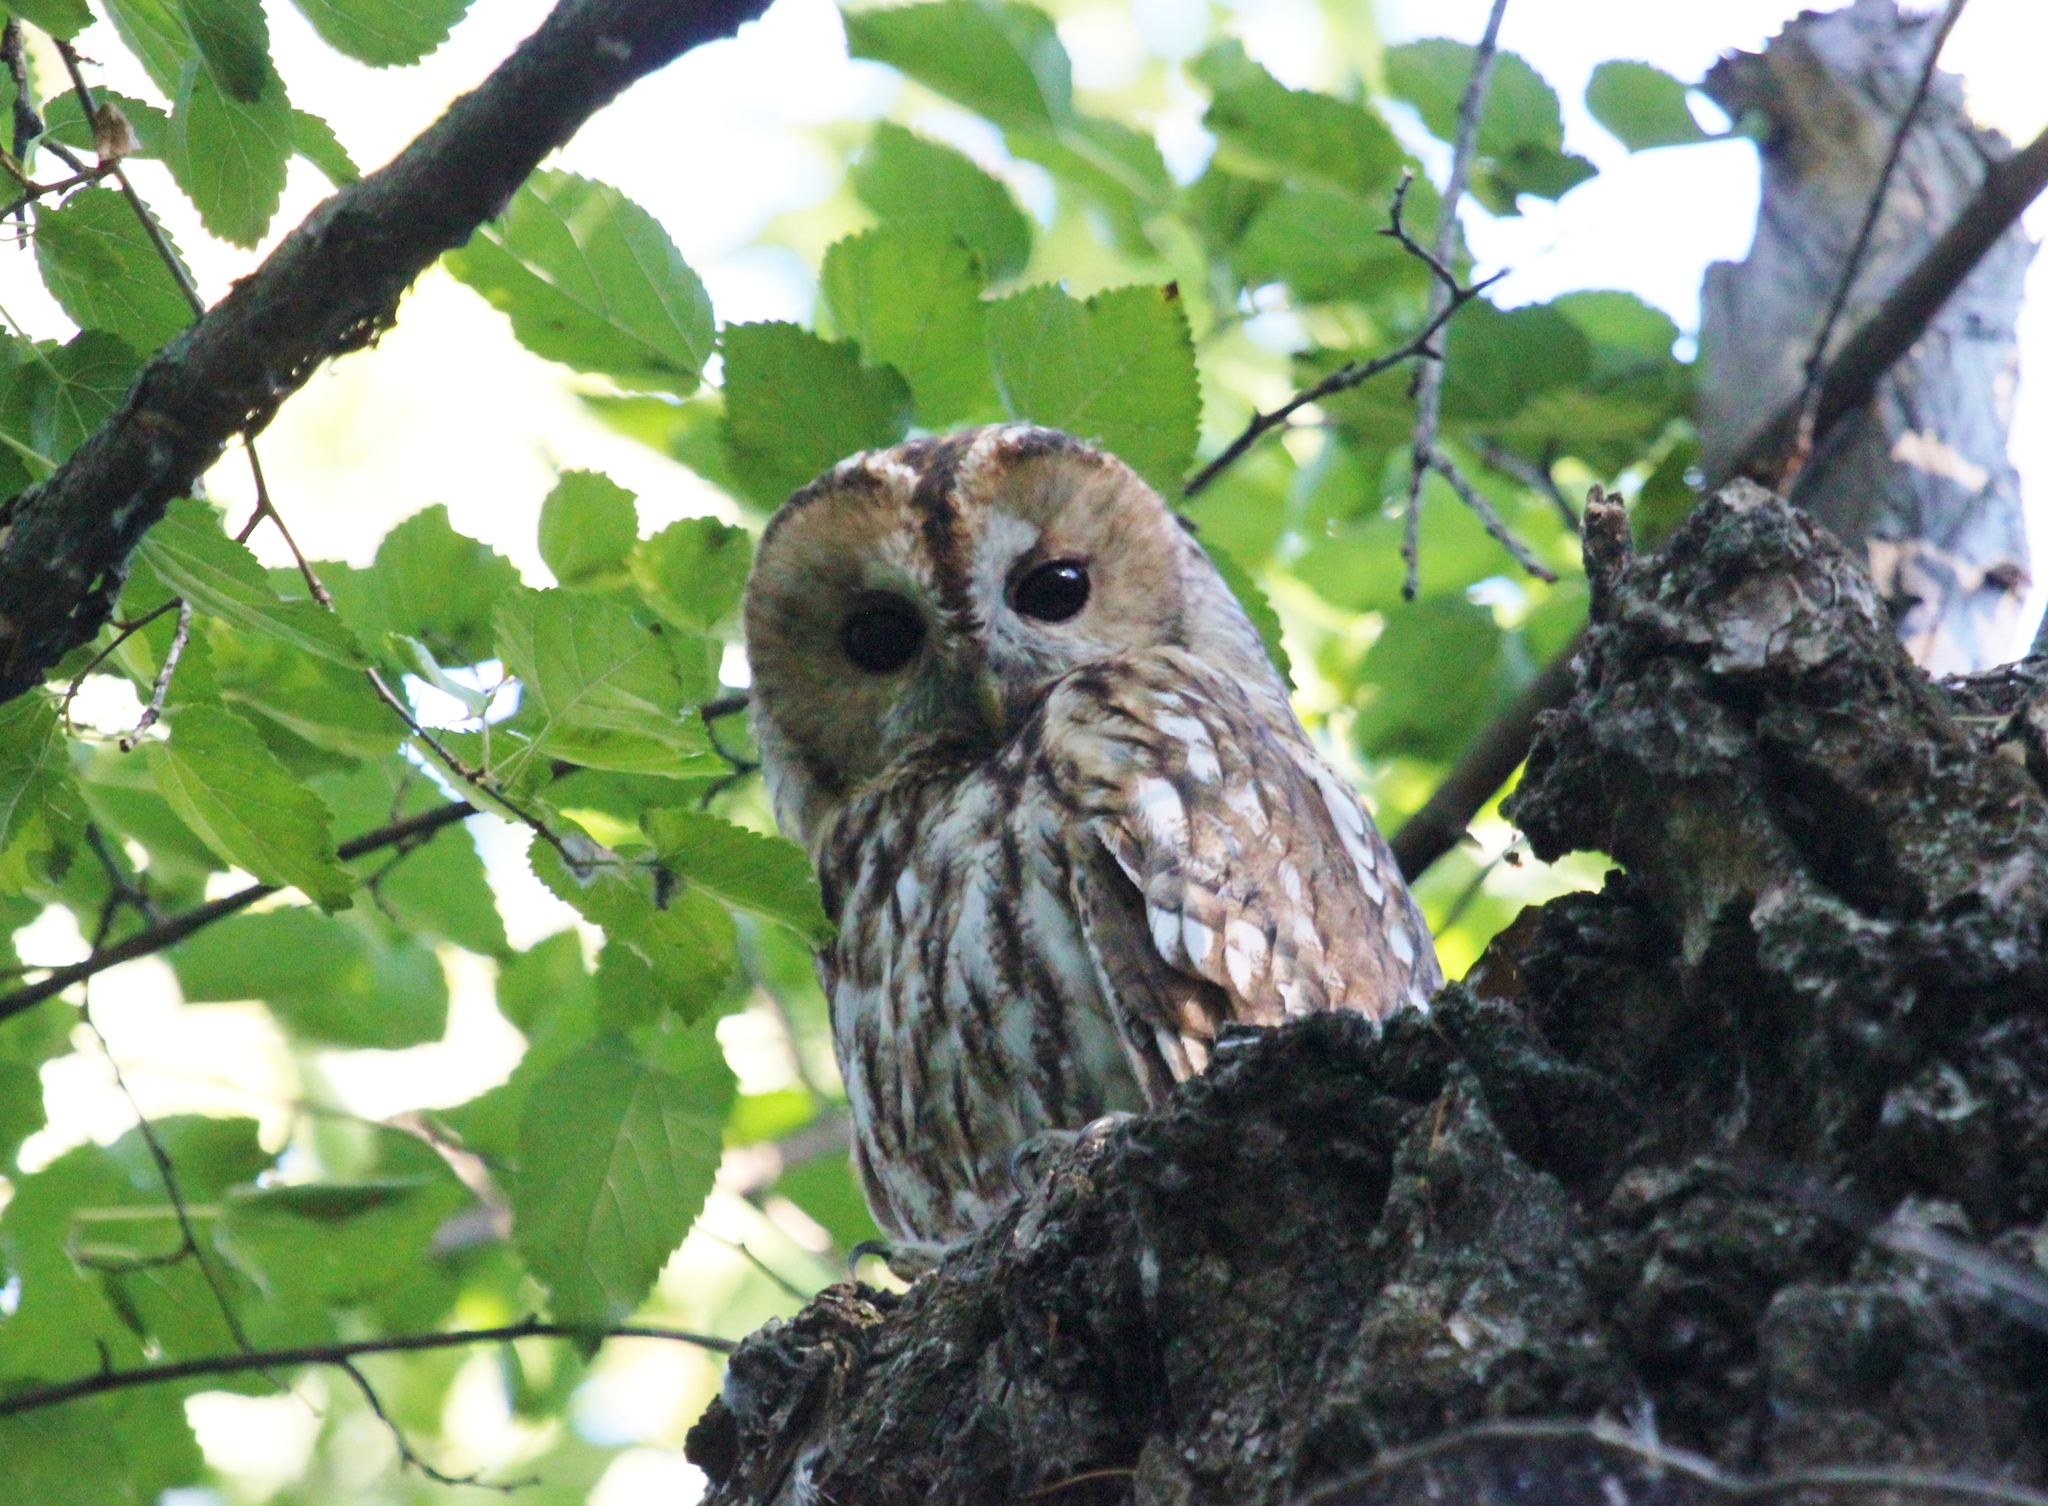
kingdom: Animalia
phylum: Chordata
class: Aves
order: Strigiformes
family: Strigidae
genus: Strix
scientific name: Strix aluco
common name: Tawny owl
